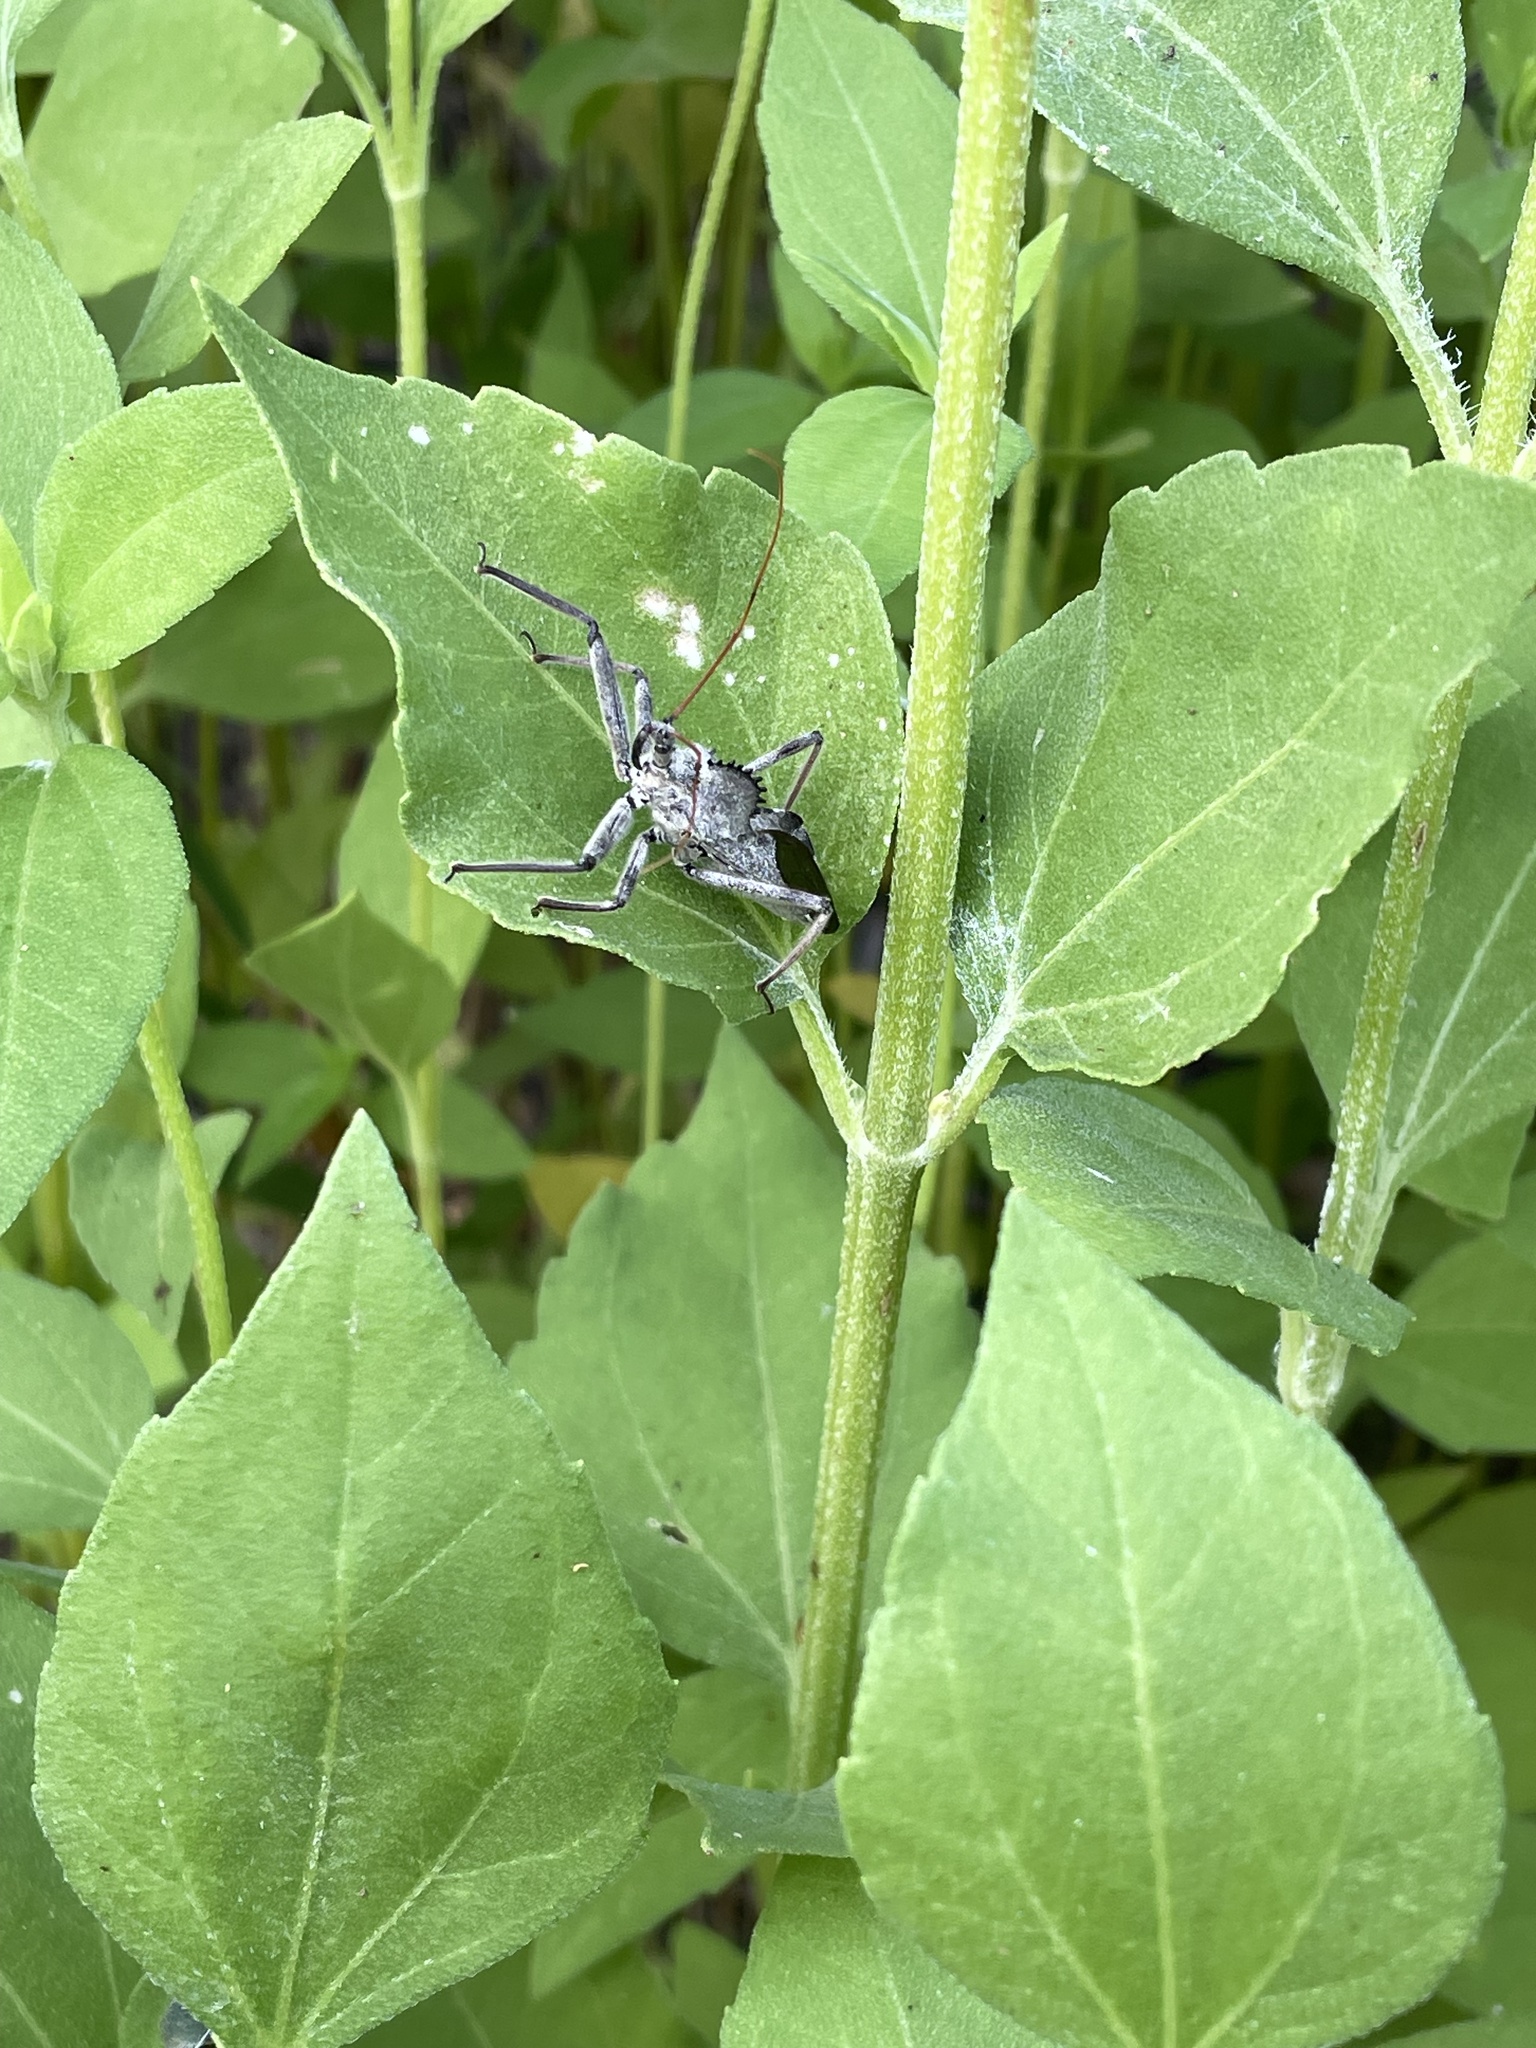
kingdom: Animalia
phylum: Arthropoda
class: Insecta
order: Hemiptera
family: Reduviidae
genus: Arilus
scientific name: Arilus cristatus
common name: North american wheel bug
